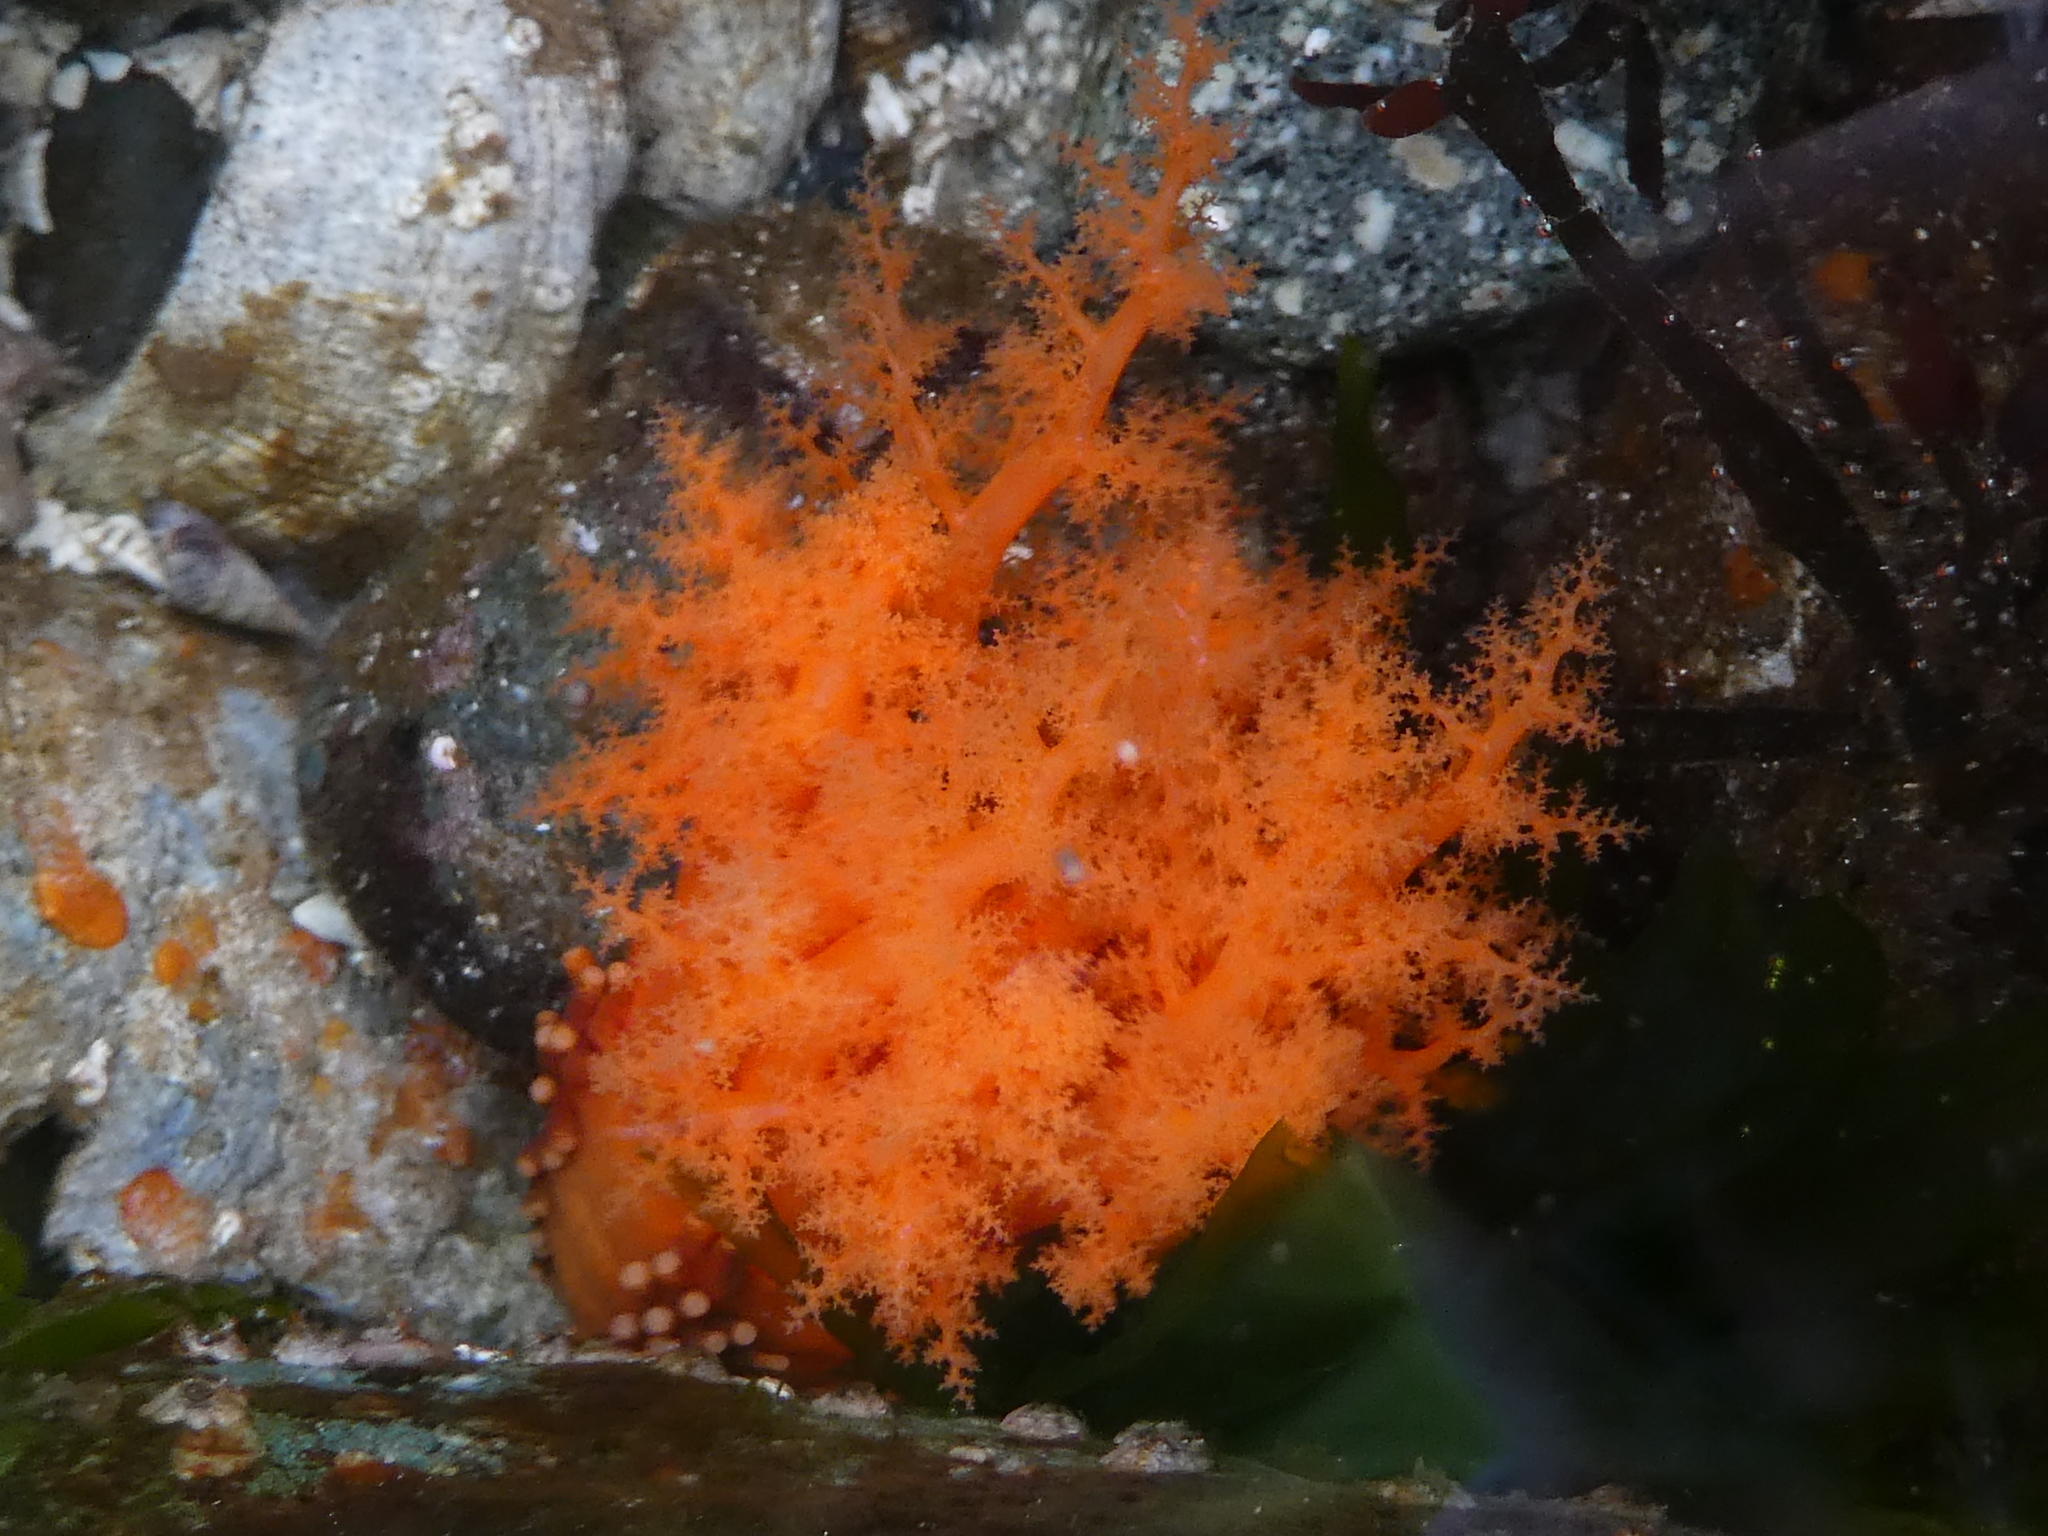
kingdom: Animalia
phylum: Echinodermata
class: Holothuroidea
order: Dendrochirotida
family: Cucumariidae
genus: Cucumaria
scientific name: Cucumaria miniata
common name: Orange sea cucumber
